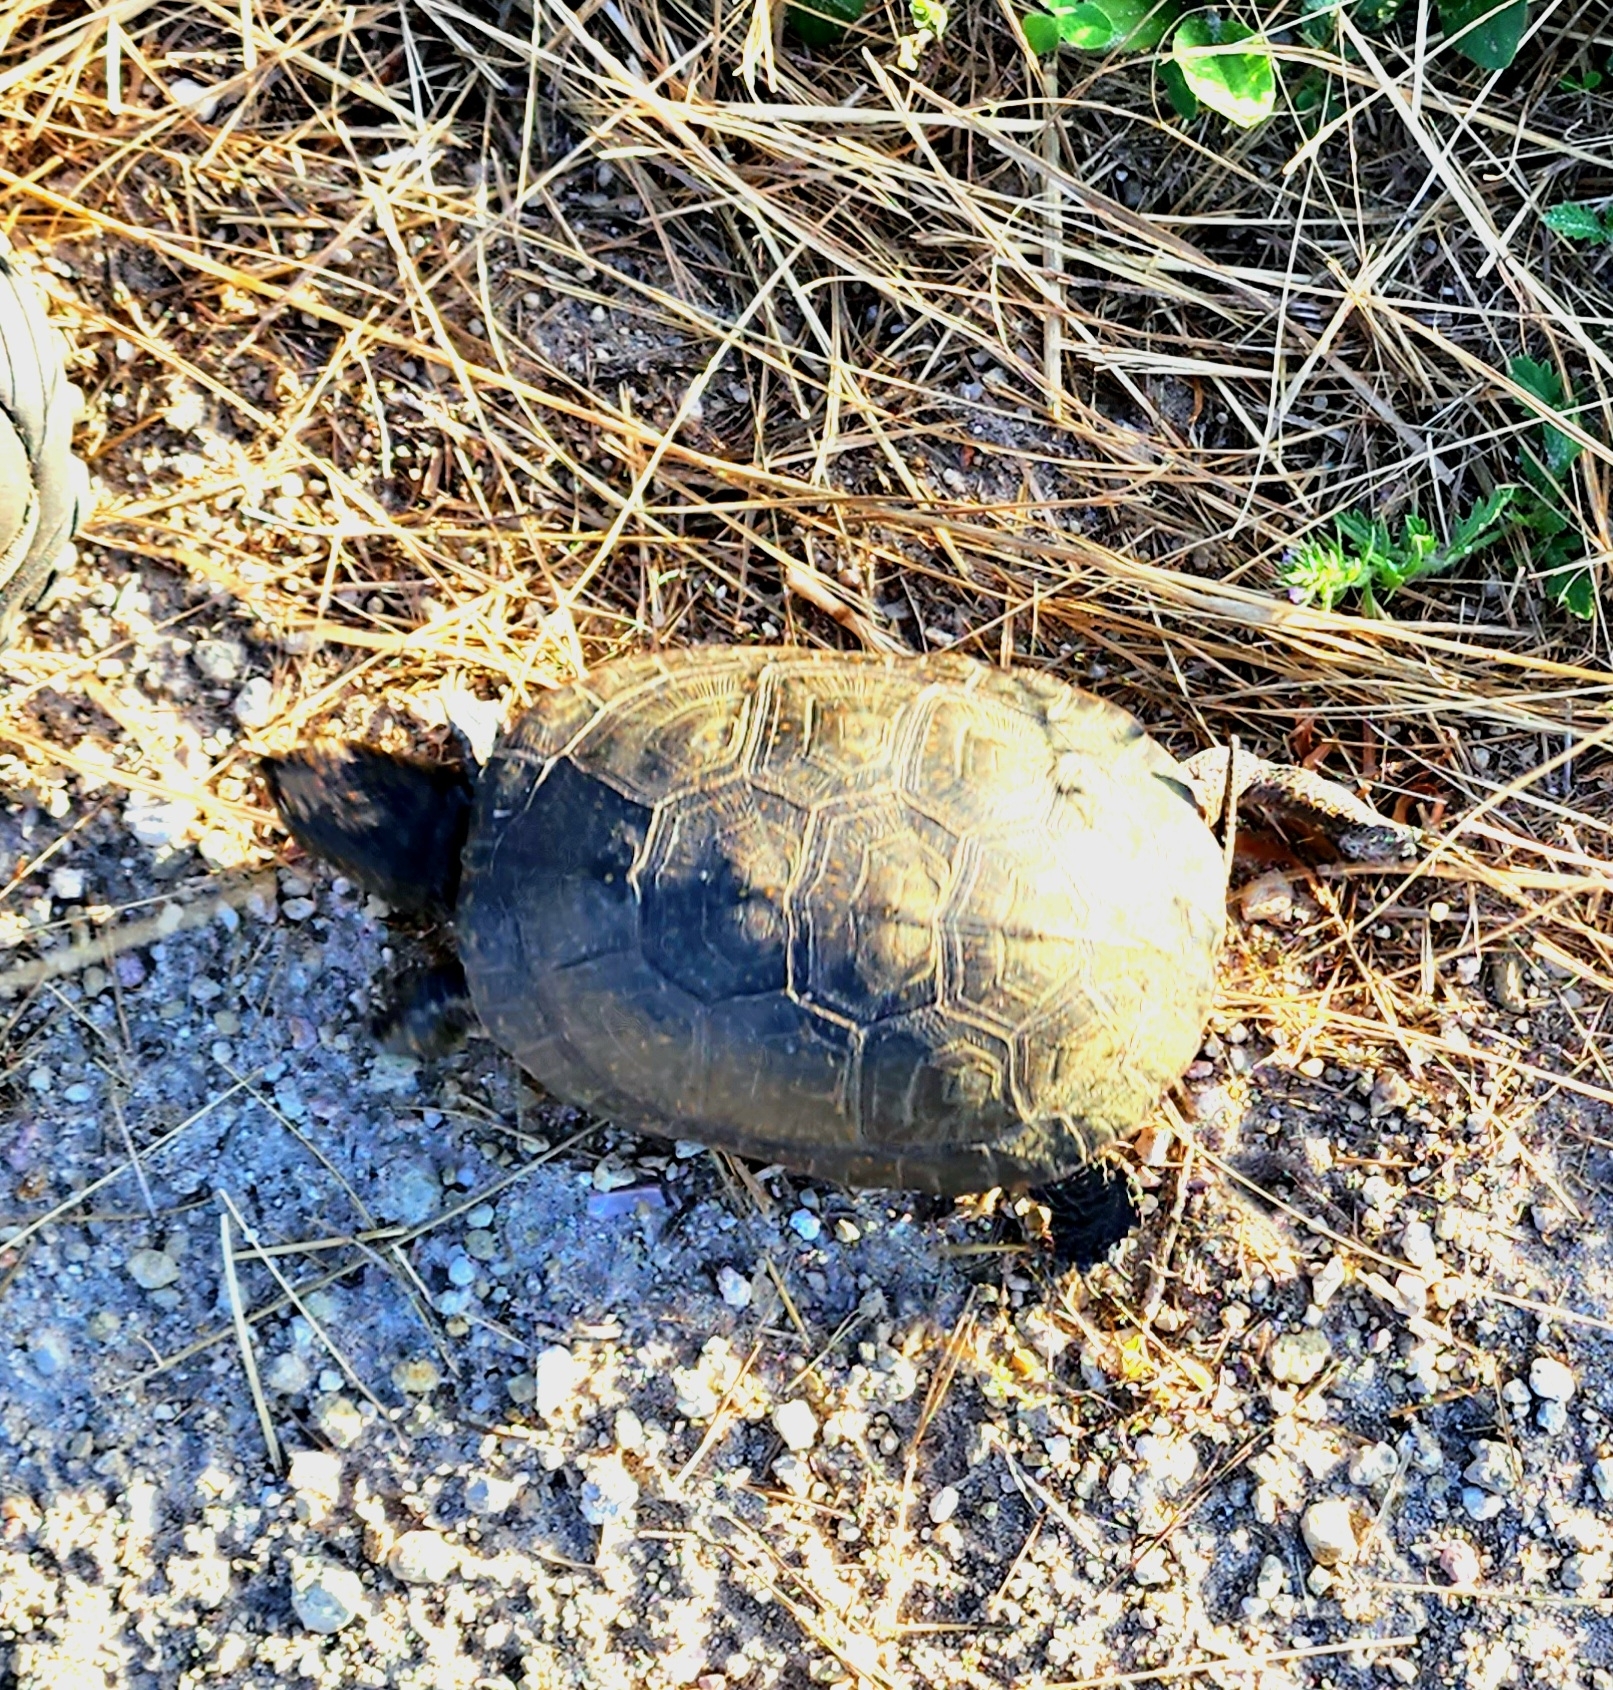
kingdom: Animalia
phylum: Chordata
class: Testudines
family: Emydidae
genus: Emys
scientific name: Emys blandingii
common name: Blanding's turtle
